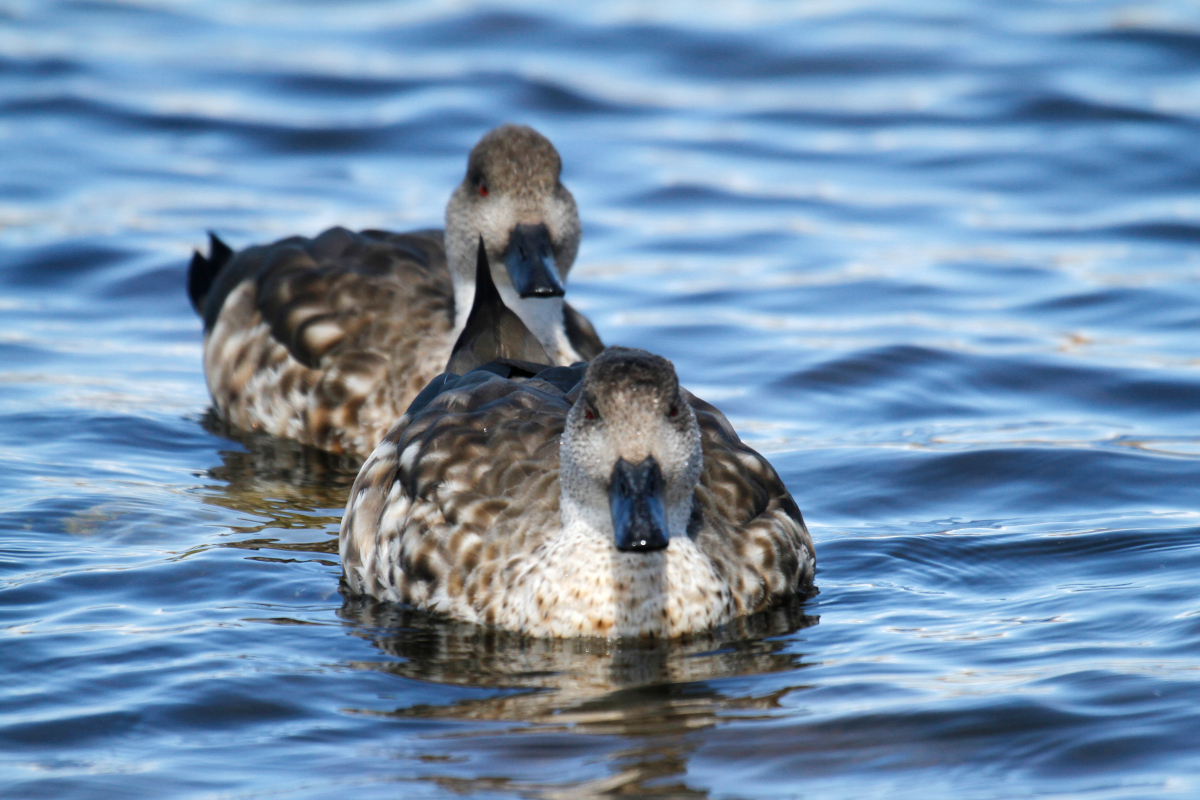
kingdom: Animalia
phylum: Chordata
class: Aves
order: Anseriformes
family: Anatidae
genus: Lophonetta
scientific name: Lophonetta specularioides
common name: Crested duck
